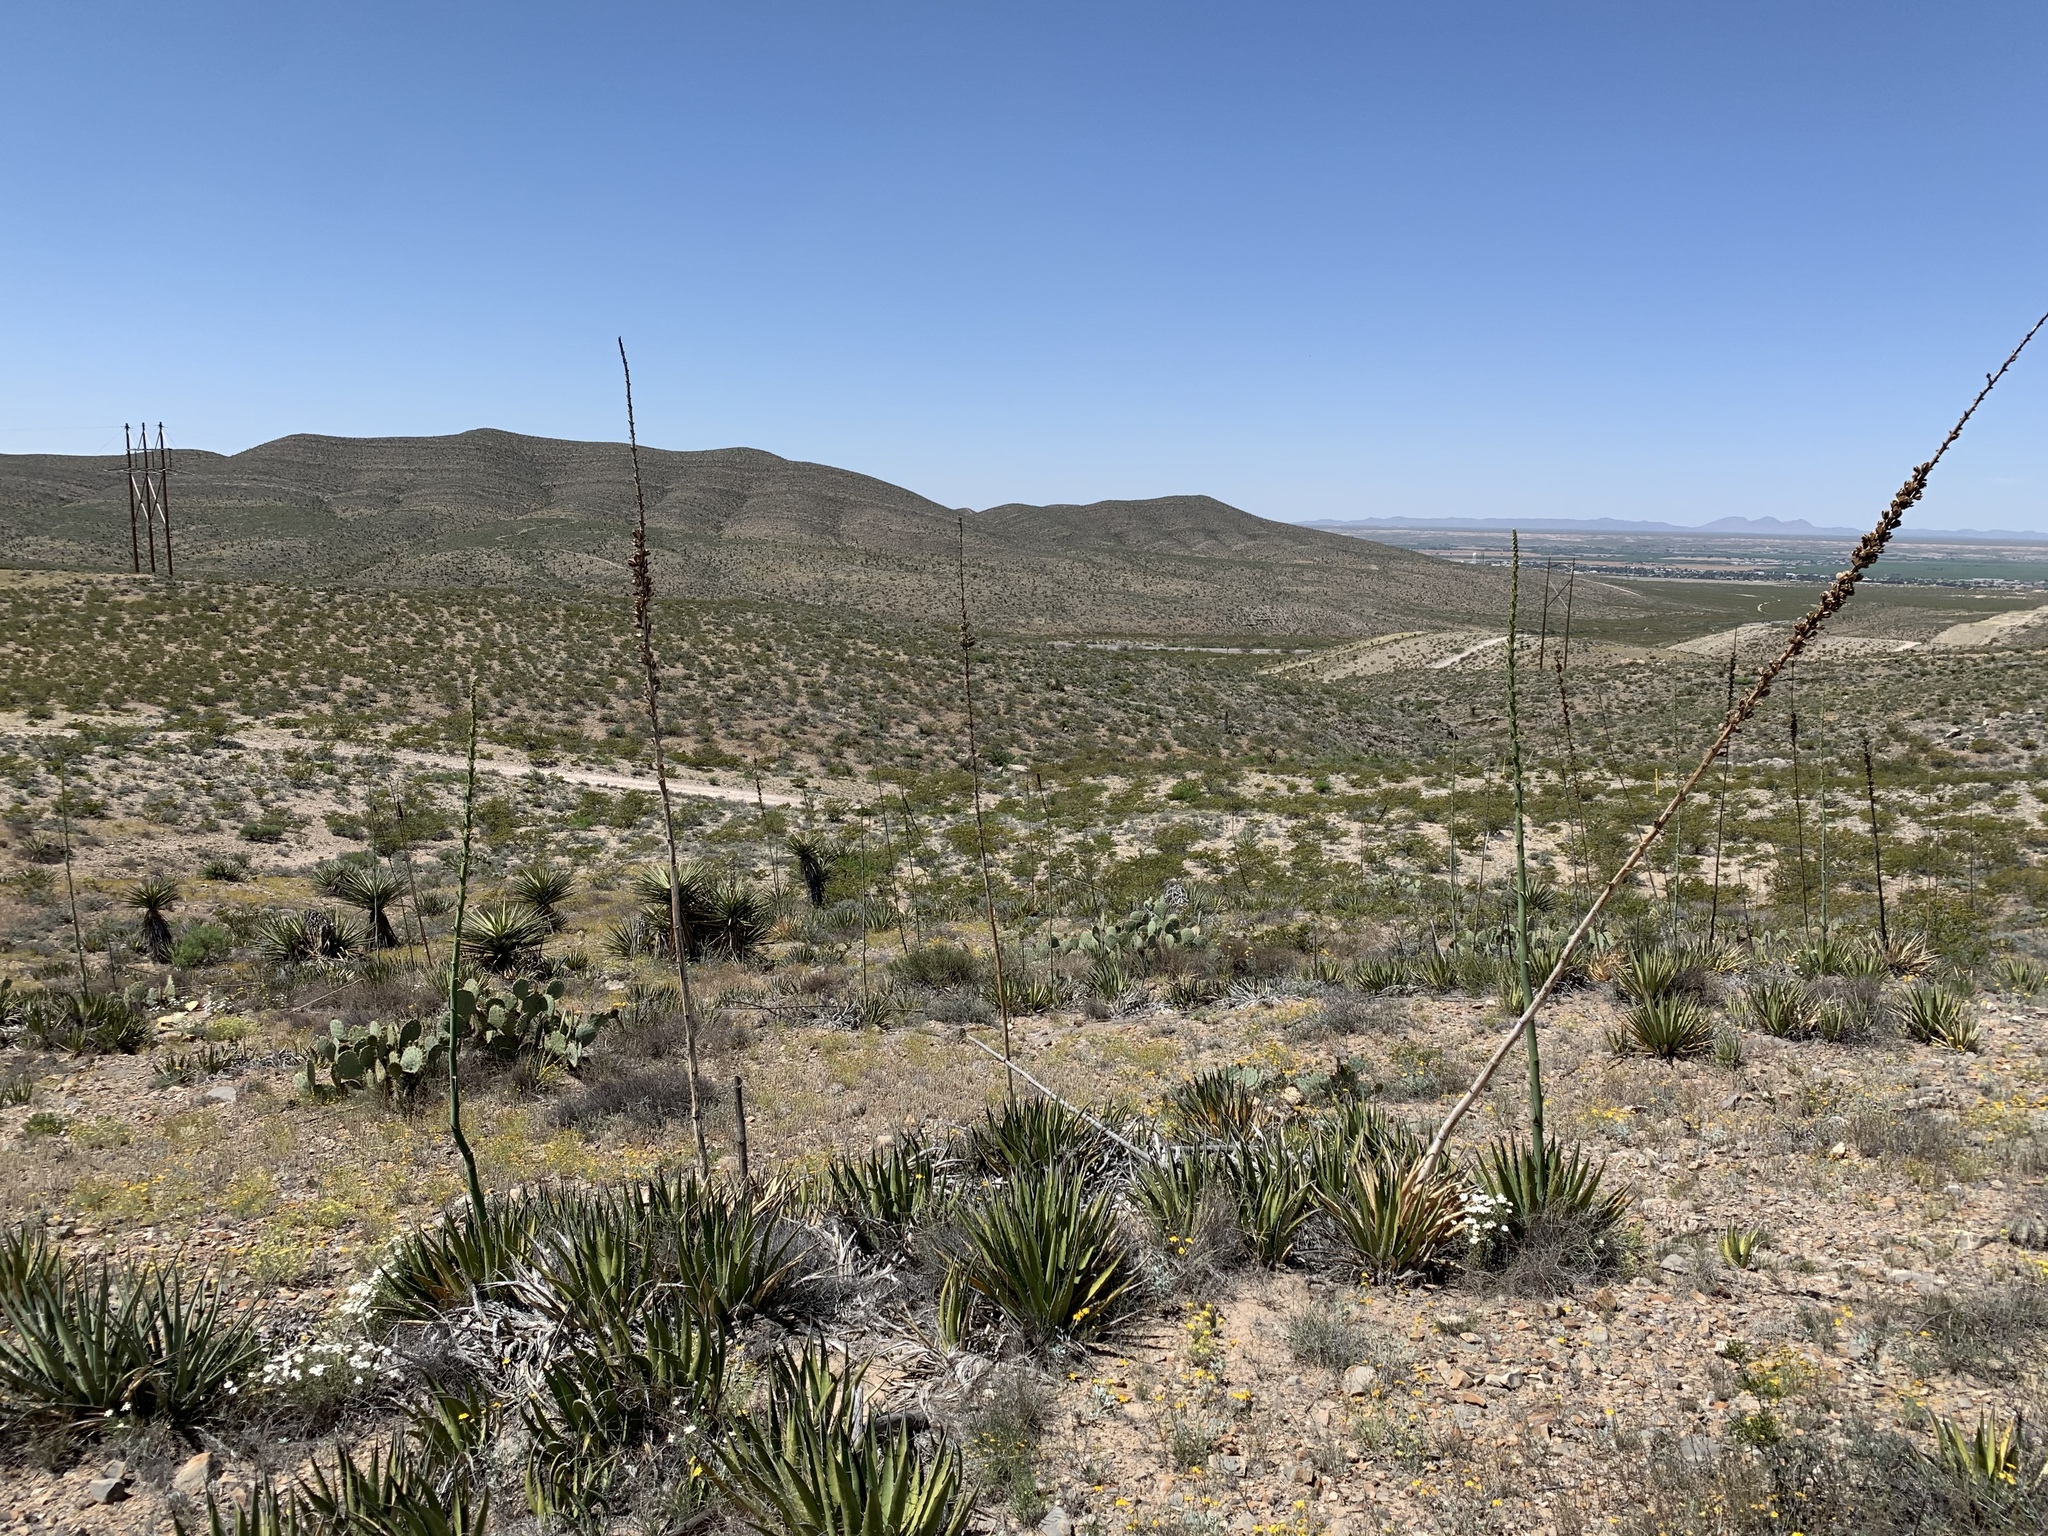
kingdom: Plantae
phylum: Tracheophyta
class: Liliopsida
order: Asparagales
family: Asparagaceae
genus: Agave
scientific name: Agave lechuguilla
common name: Lecheguilla agave
